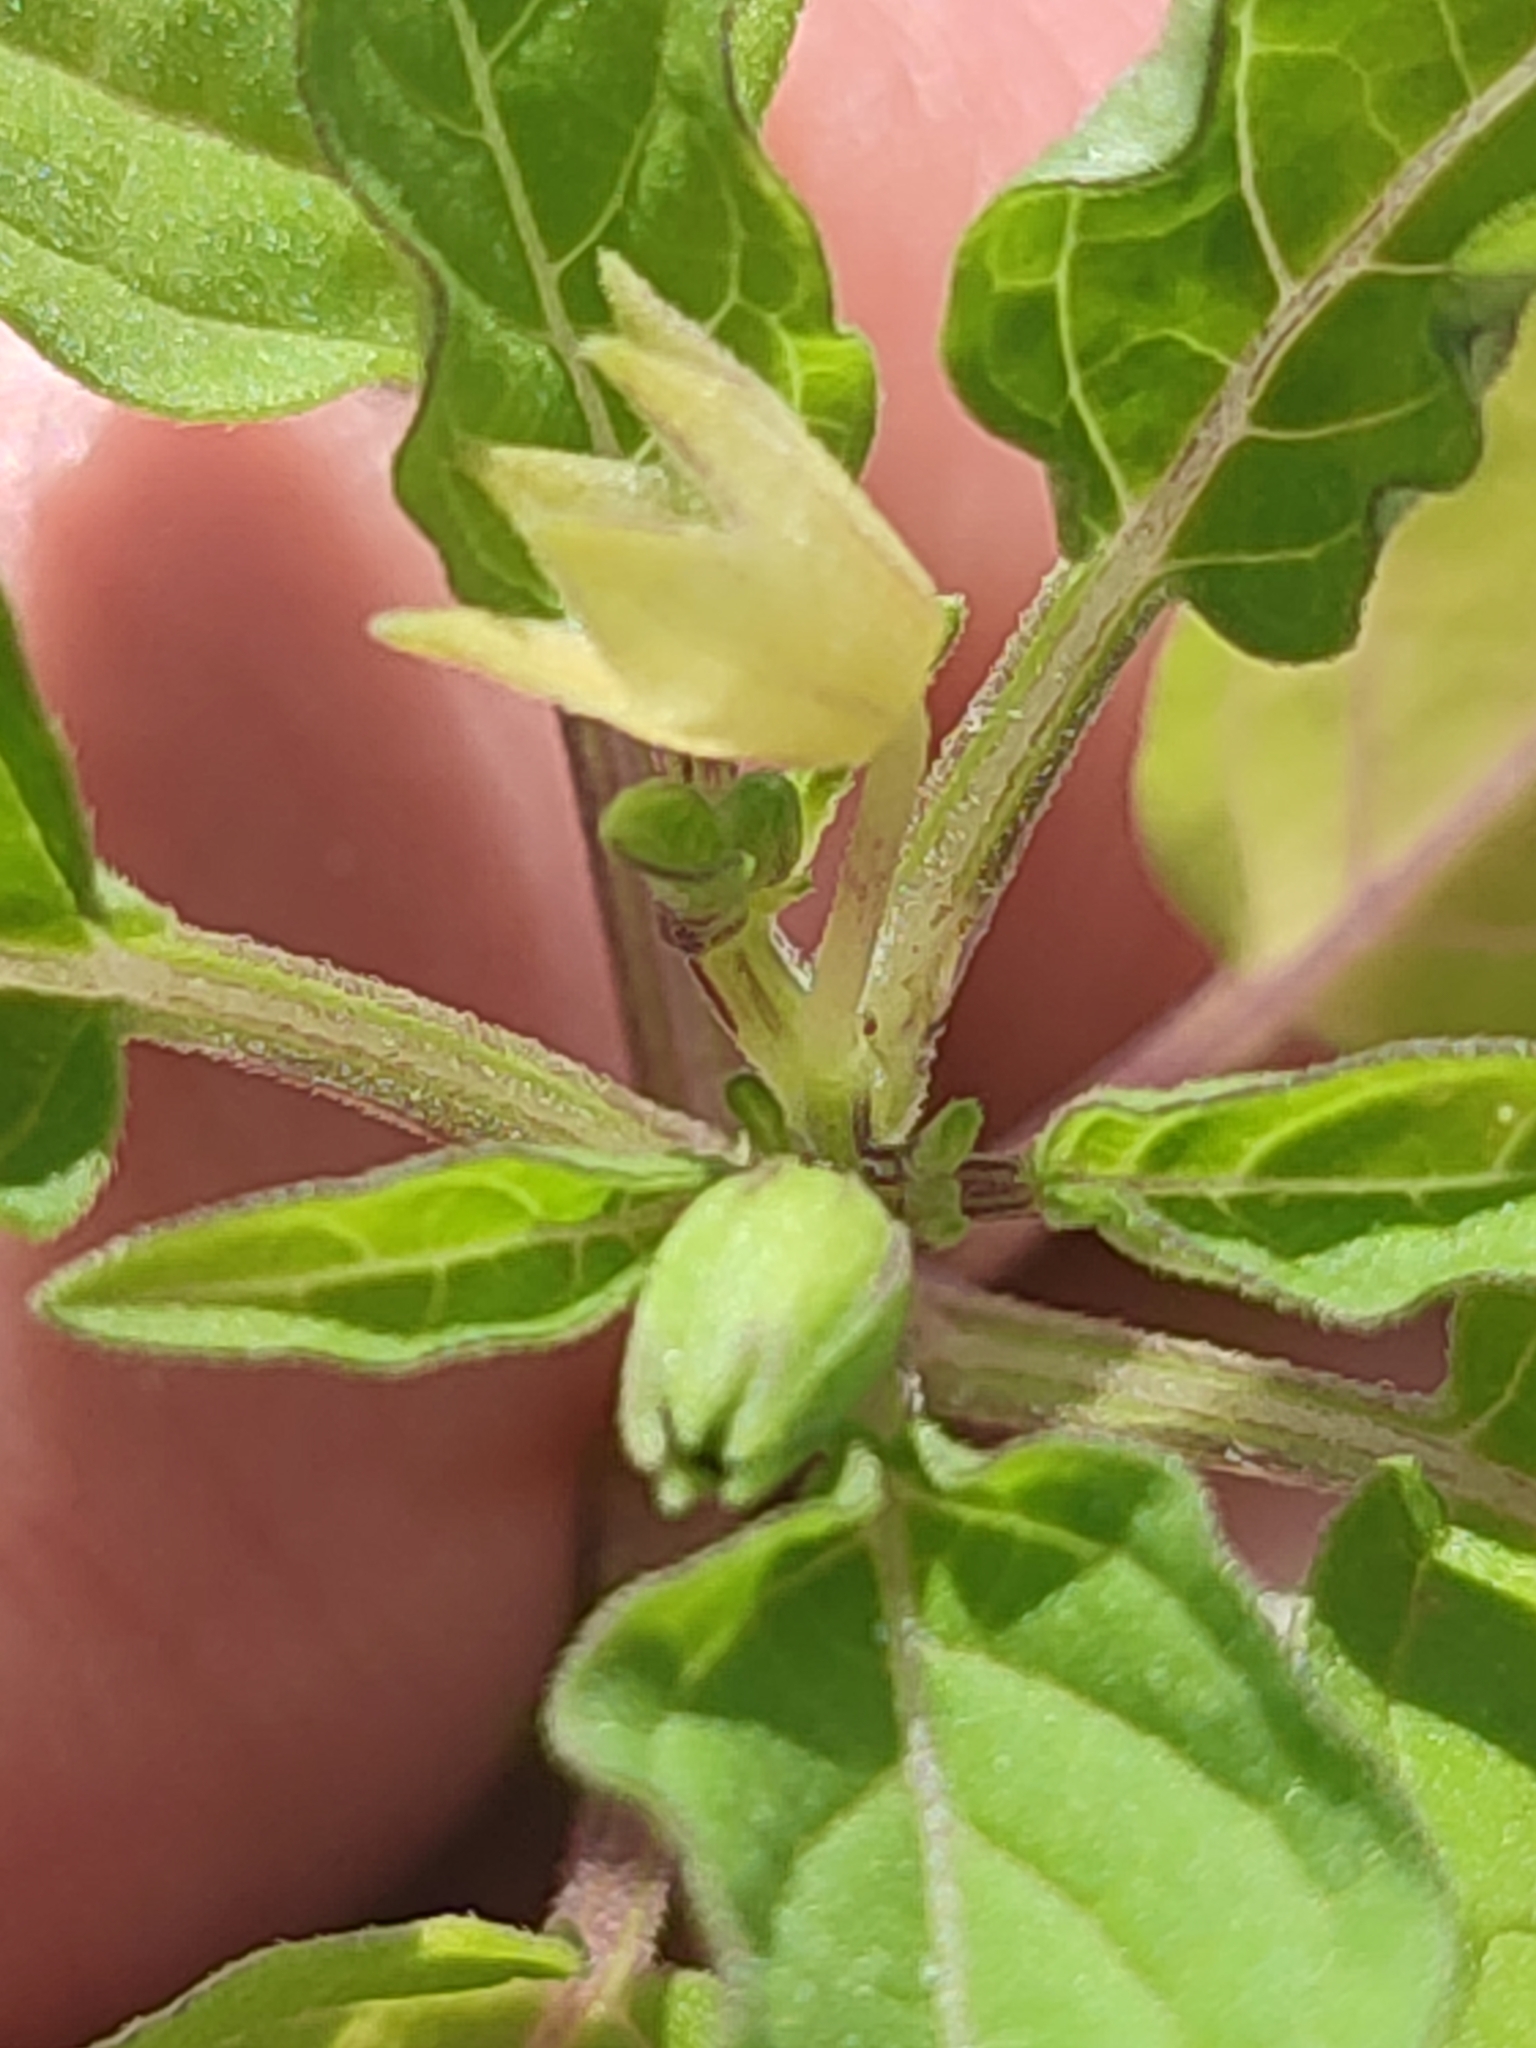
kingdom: Plantae
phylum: Tracheophyta
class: Magnoliopsida
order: Solanales
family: Solanaceae
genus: Physalis
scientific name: Physalis angulata
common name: Angular winter-cherry
